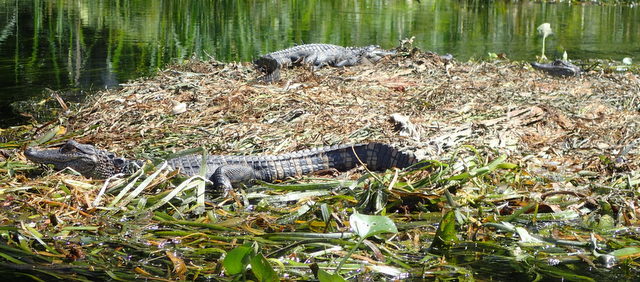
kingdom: Animalia
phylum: Chordata
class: Crocodylia
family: Alligatoridae
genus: Alligator
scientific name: Alligator mississippiensis
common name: American alligator
